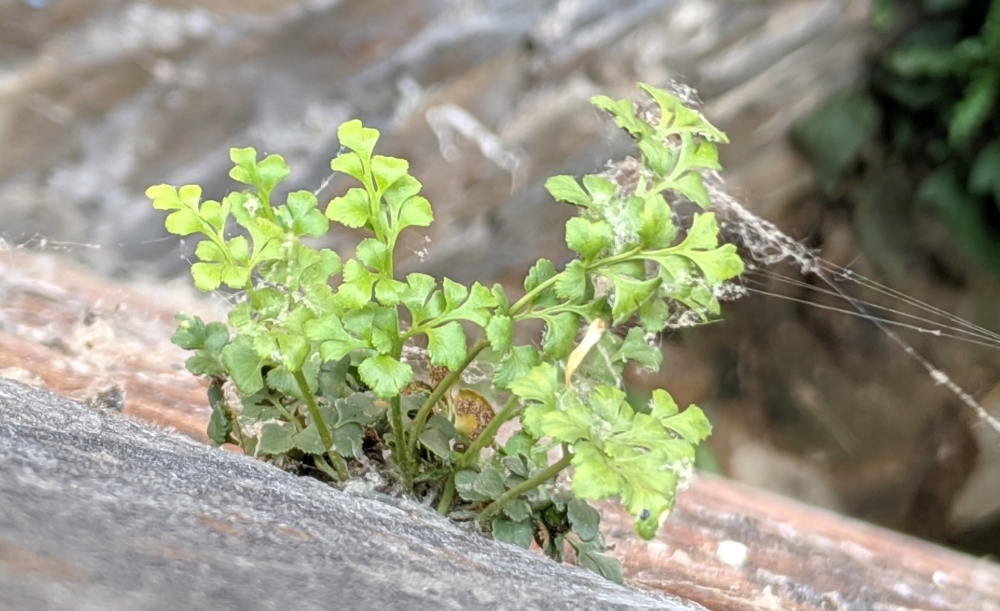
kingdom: Plantae
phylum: Tracheophyta
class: Polypodiopsida
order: Polypodiales
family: Aspleniaceae
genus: Asplenium
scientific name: Asplenium ruta-muraria
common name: Wall-rue
